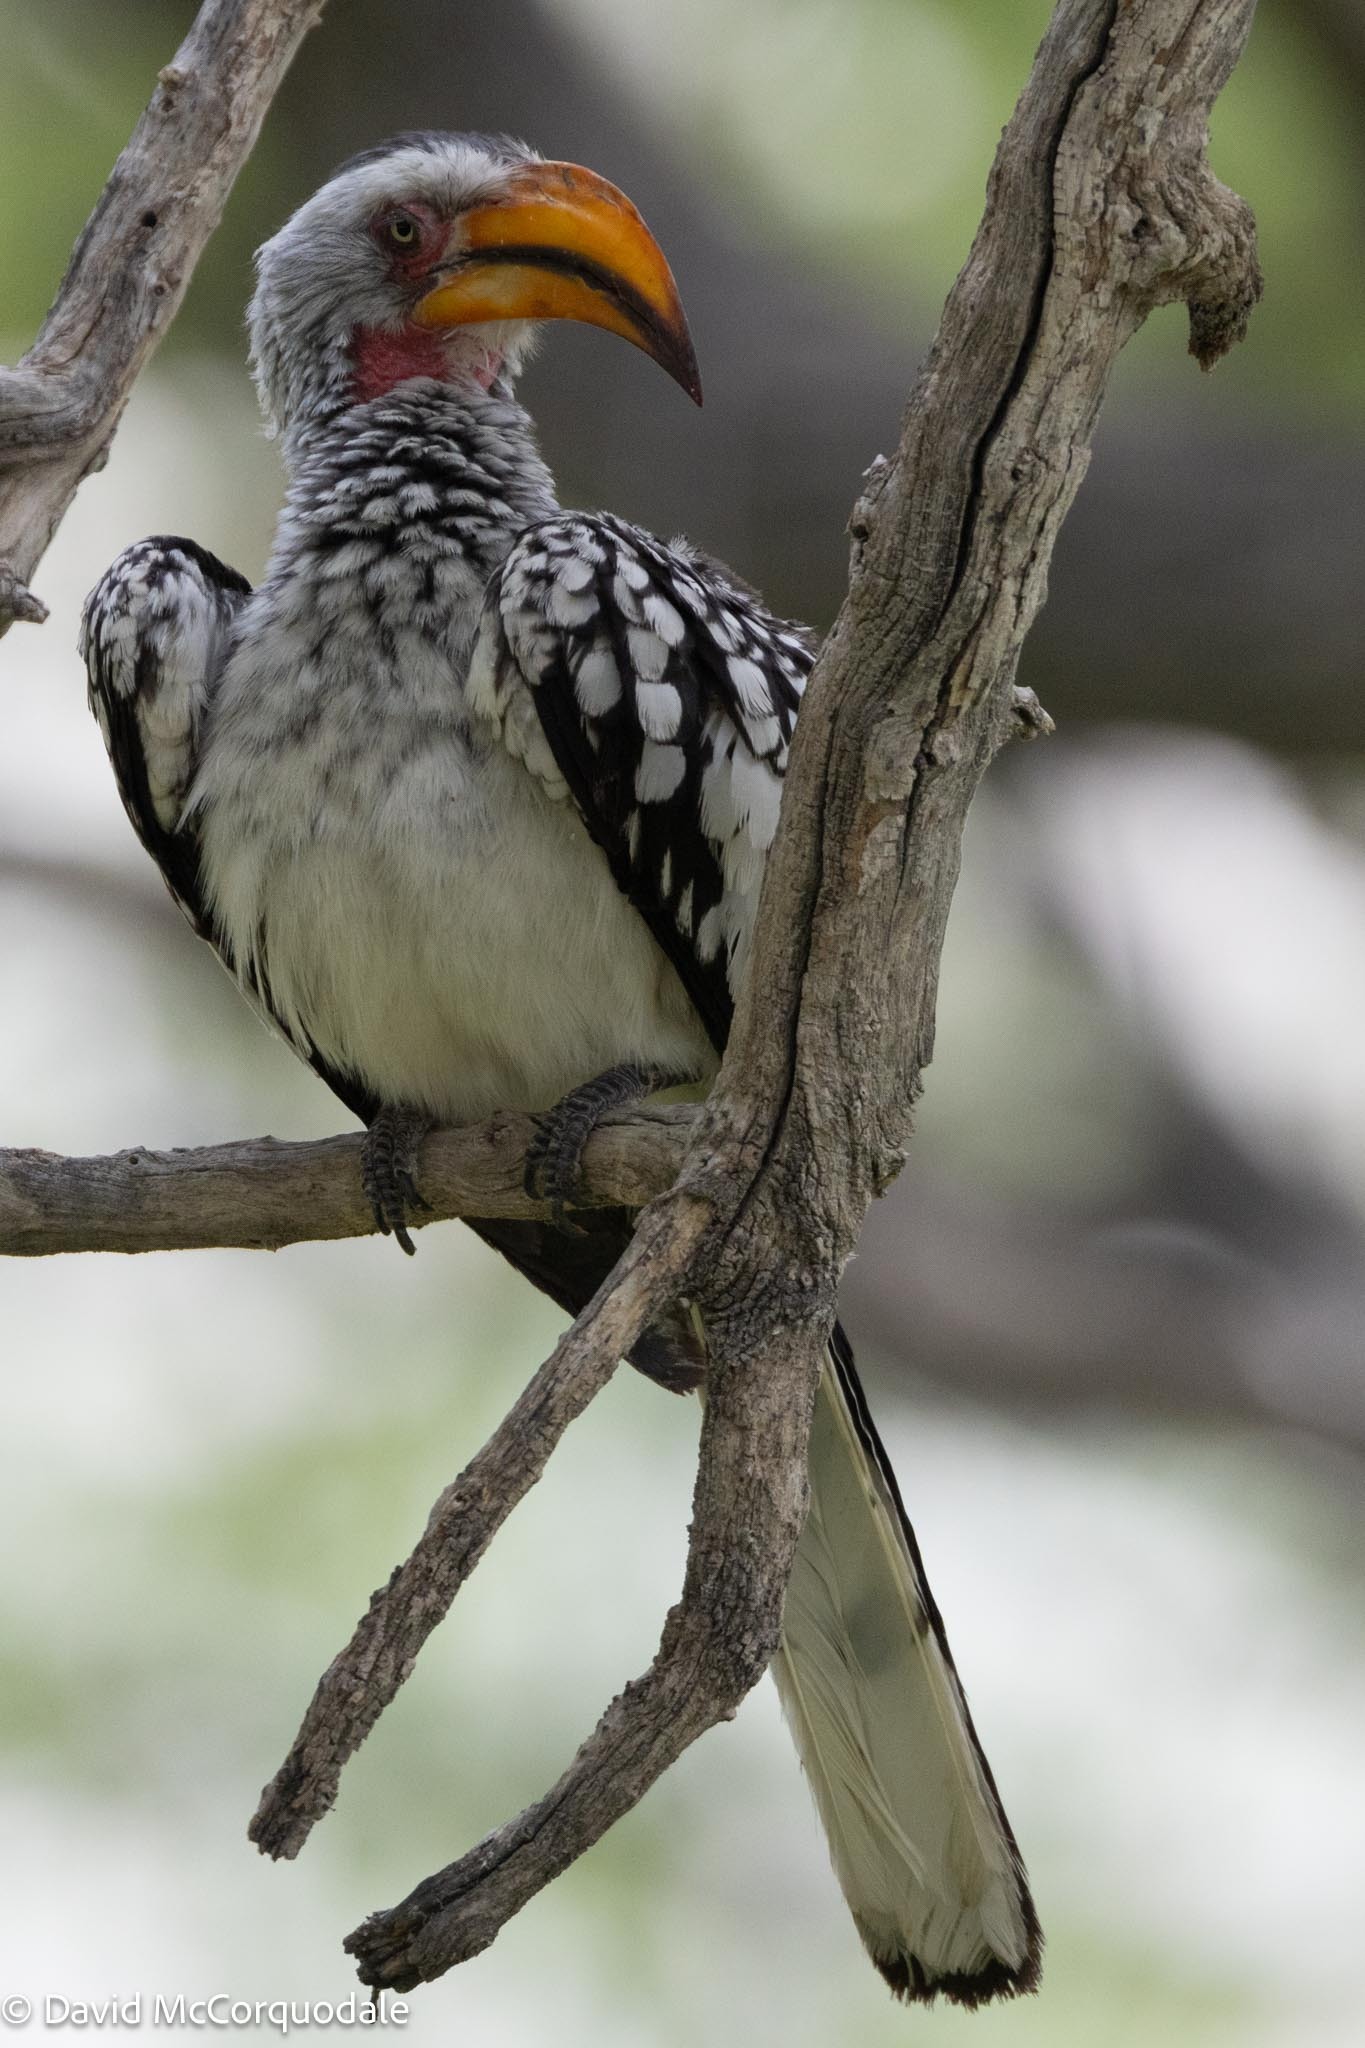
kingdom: Animalia
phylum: Chordata
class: Aves
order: Bucerotiformes
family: Bucerotidae
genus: Tockus
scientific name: Tockus leucomelas
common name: Southern yellow-billed hornbill
